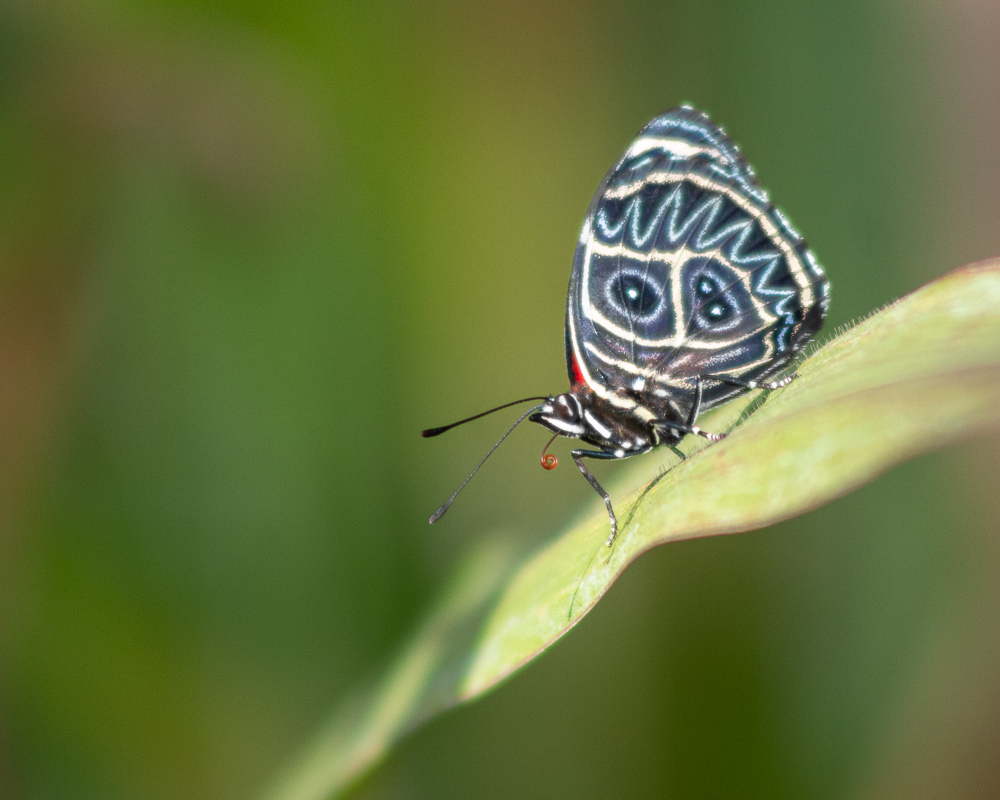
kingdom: Animalia
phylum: Arthropoda
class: Insecta
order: Lepidoptera
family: Nymphalidae
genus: Catagramma
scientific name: Catagramma Callicore sorana
